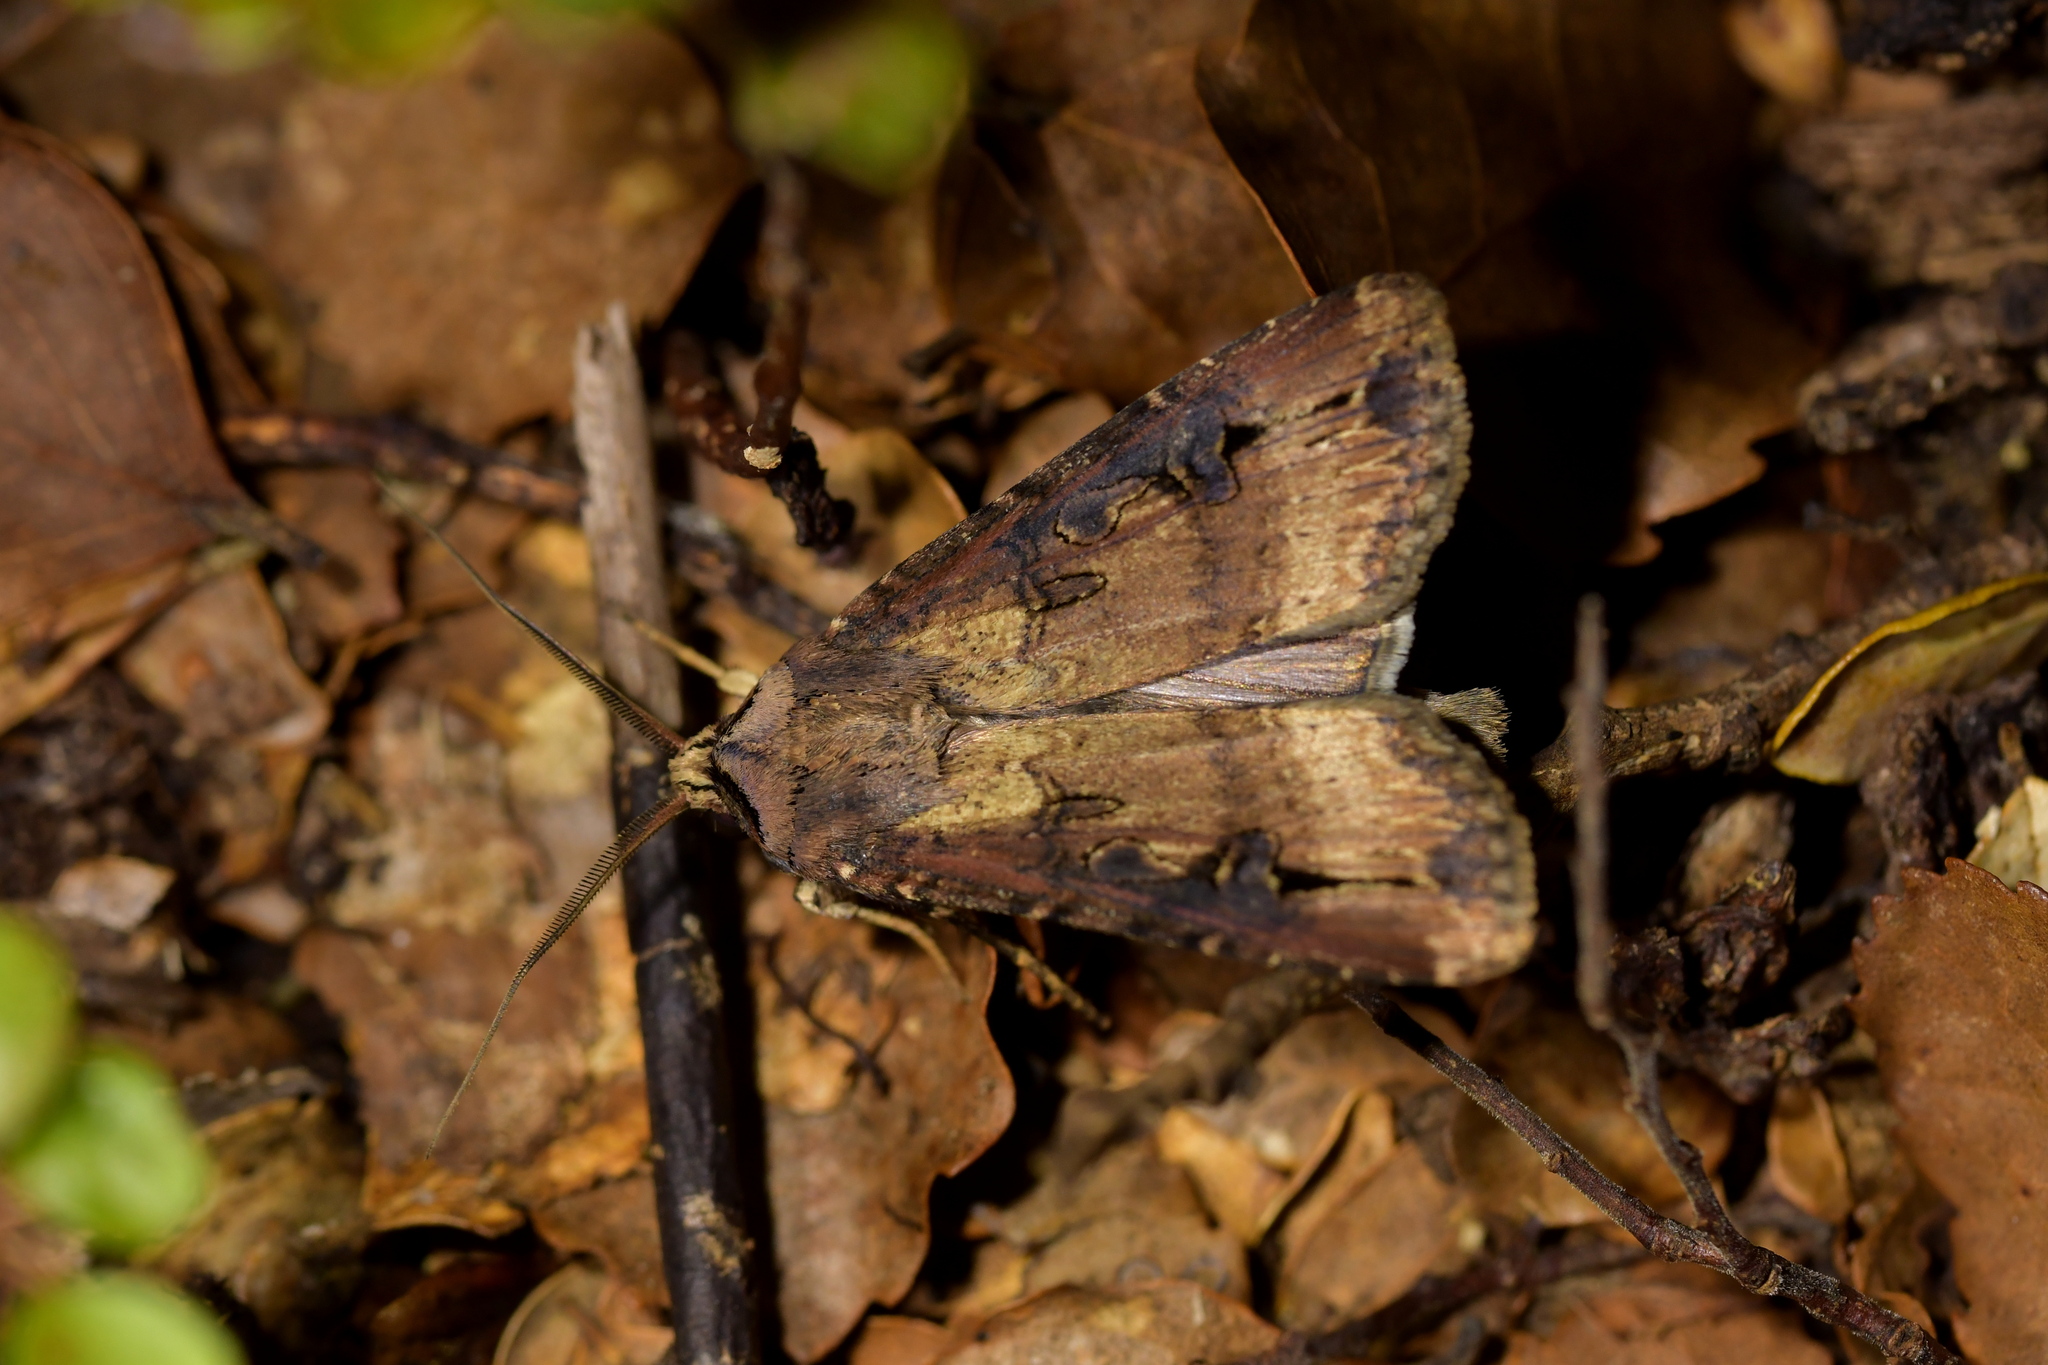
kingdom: Animalia
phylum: Arthropoda
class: Insecta
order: Lepidoptera
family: Noctuidae
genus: Agrotis
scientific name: Agrotis ipsilon
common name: Dark sword-grass
